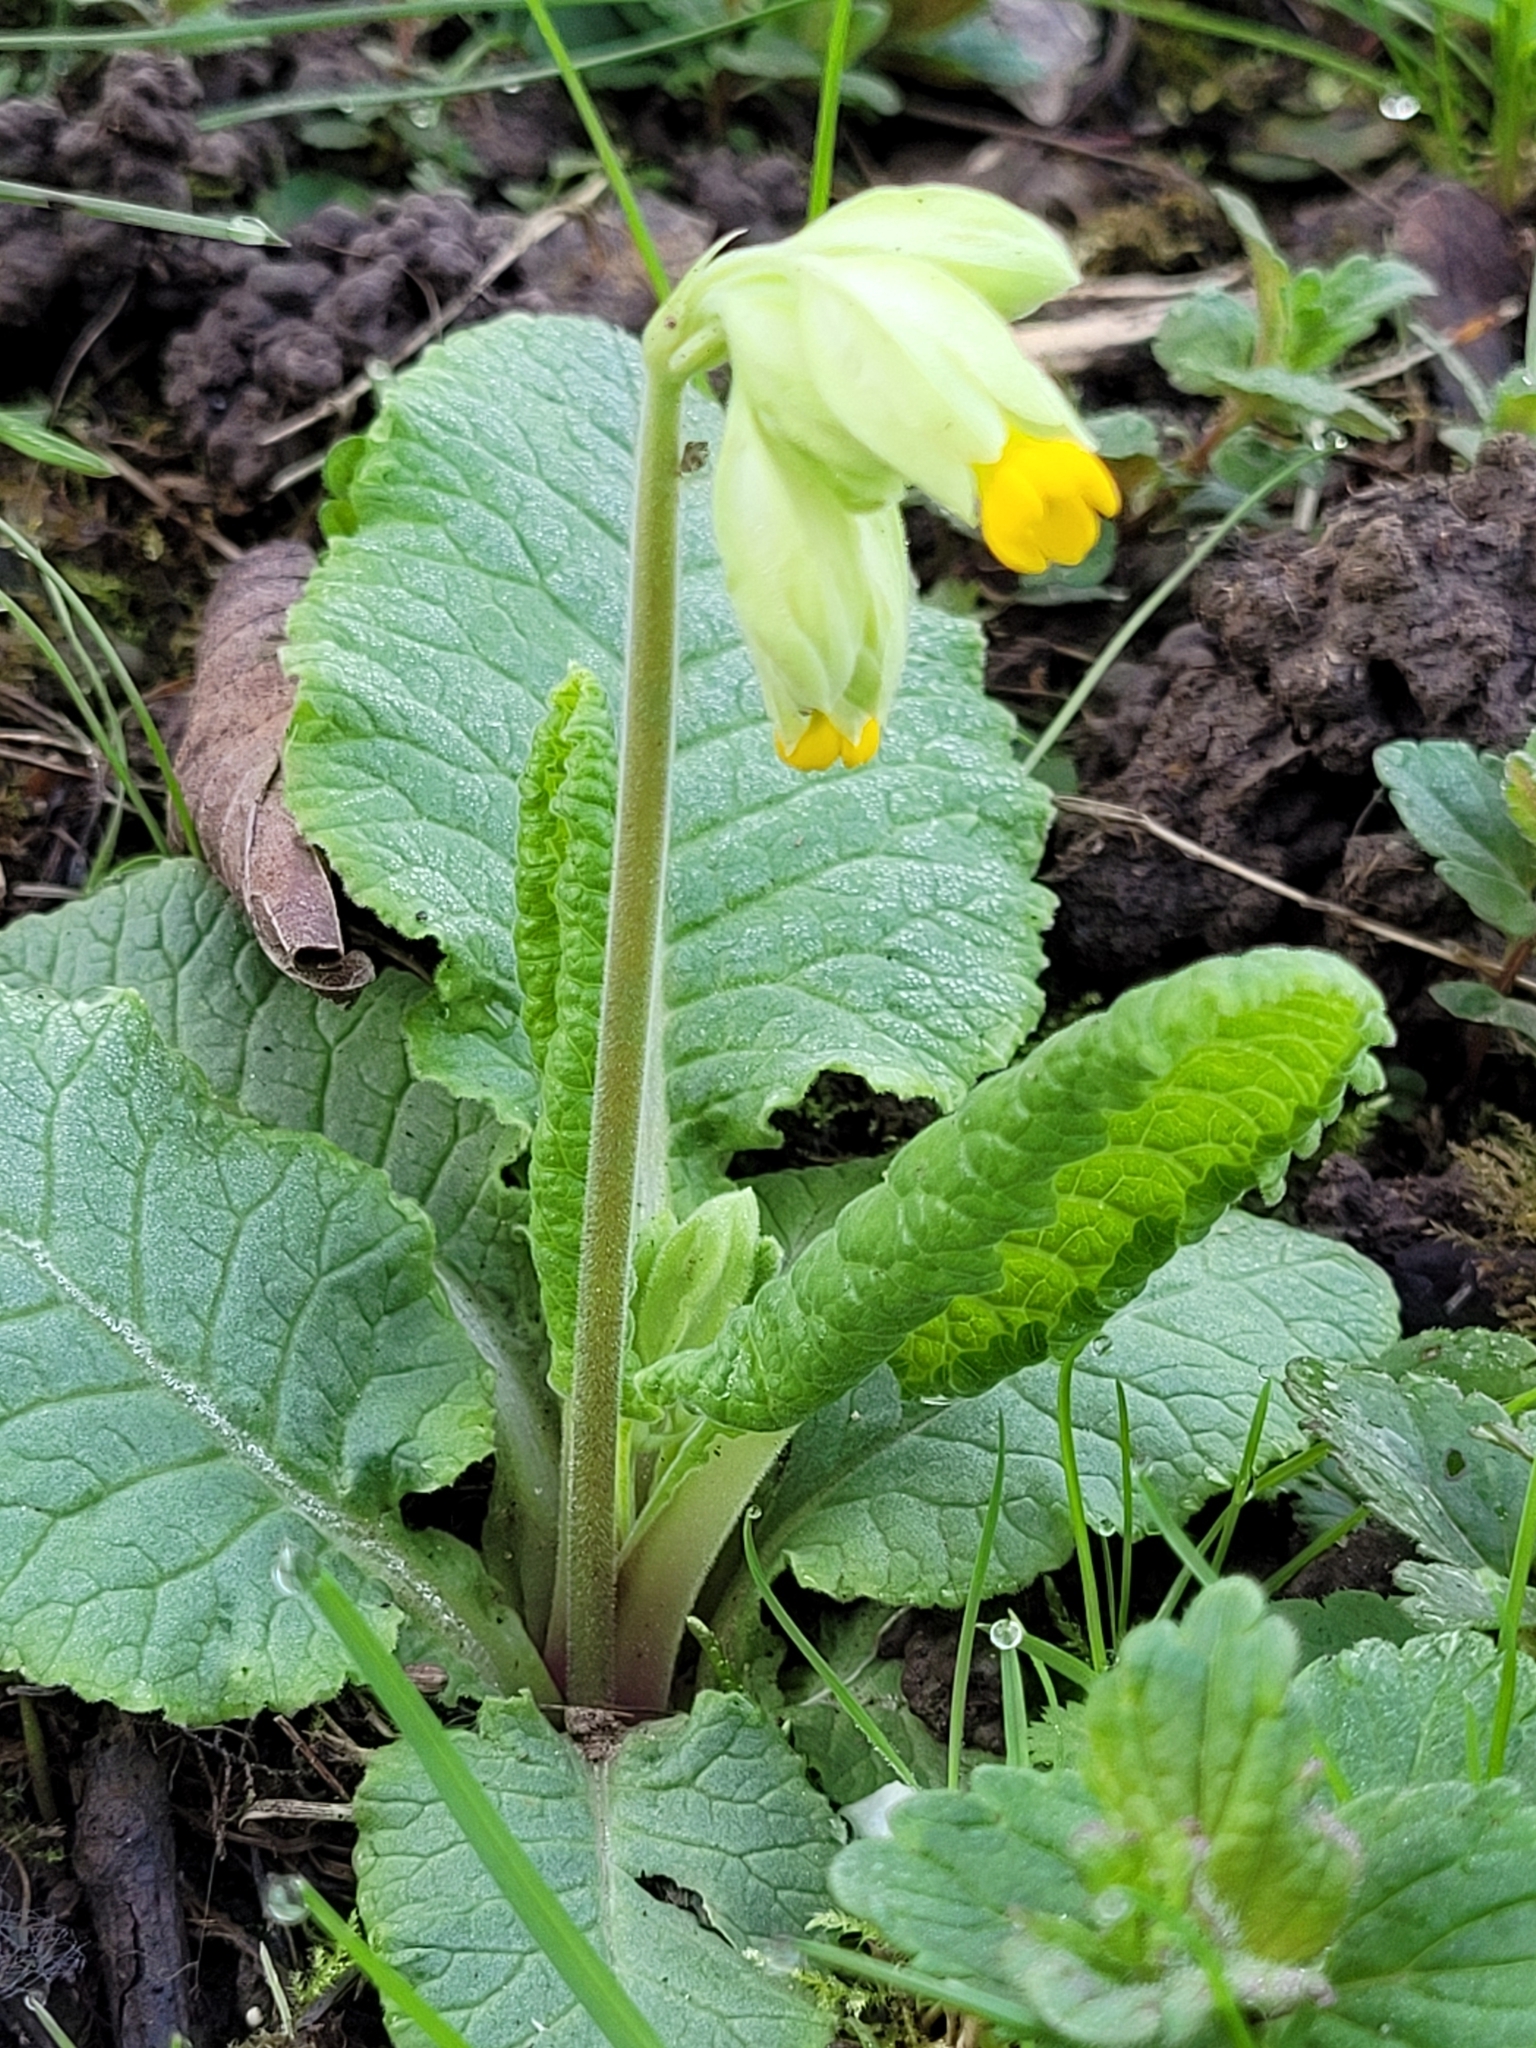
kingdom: Plantae
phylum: Tracheophyta
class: Magnoliopsida
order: Ericales
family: Primulaceae
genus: Primula
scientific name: Primula veris
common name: Cowslip
